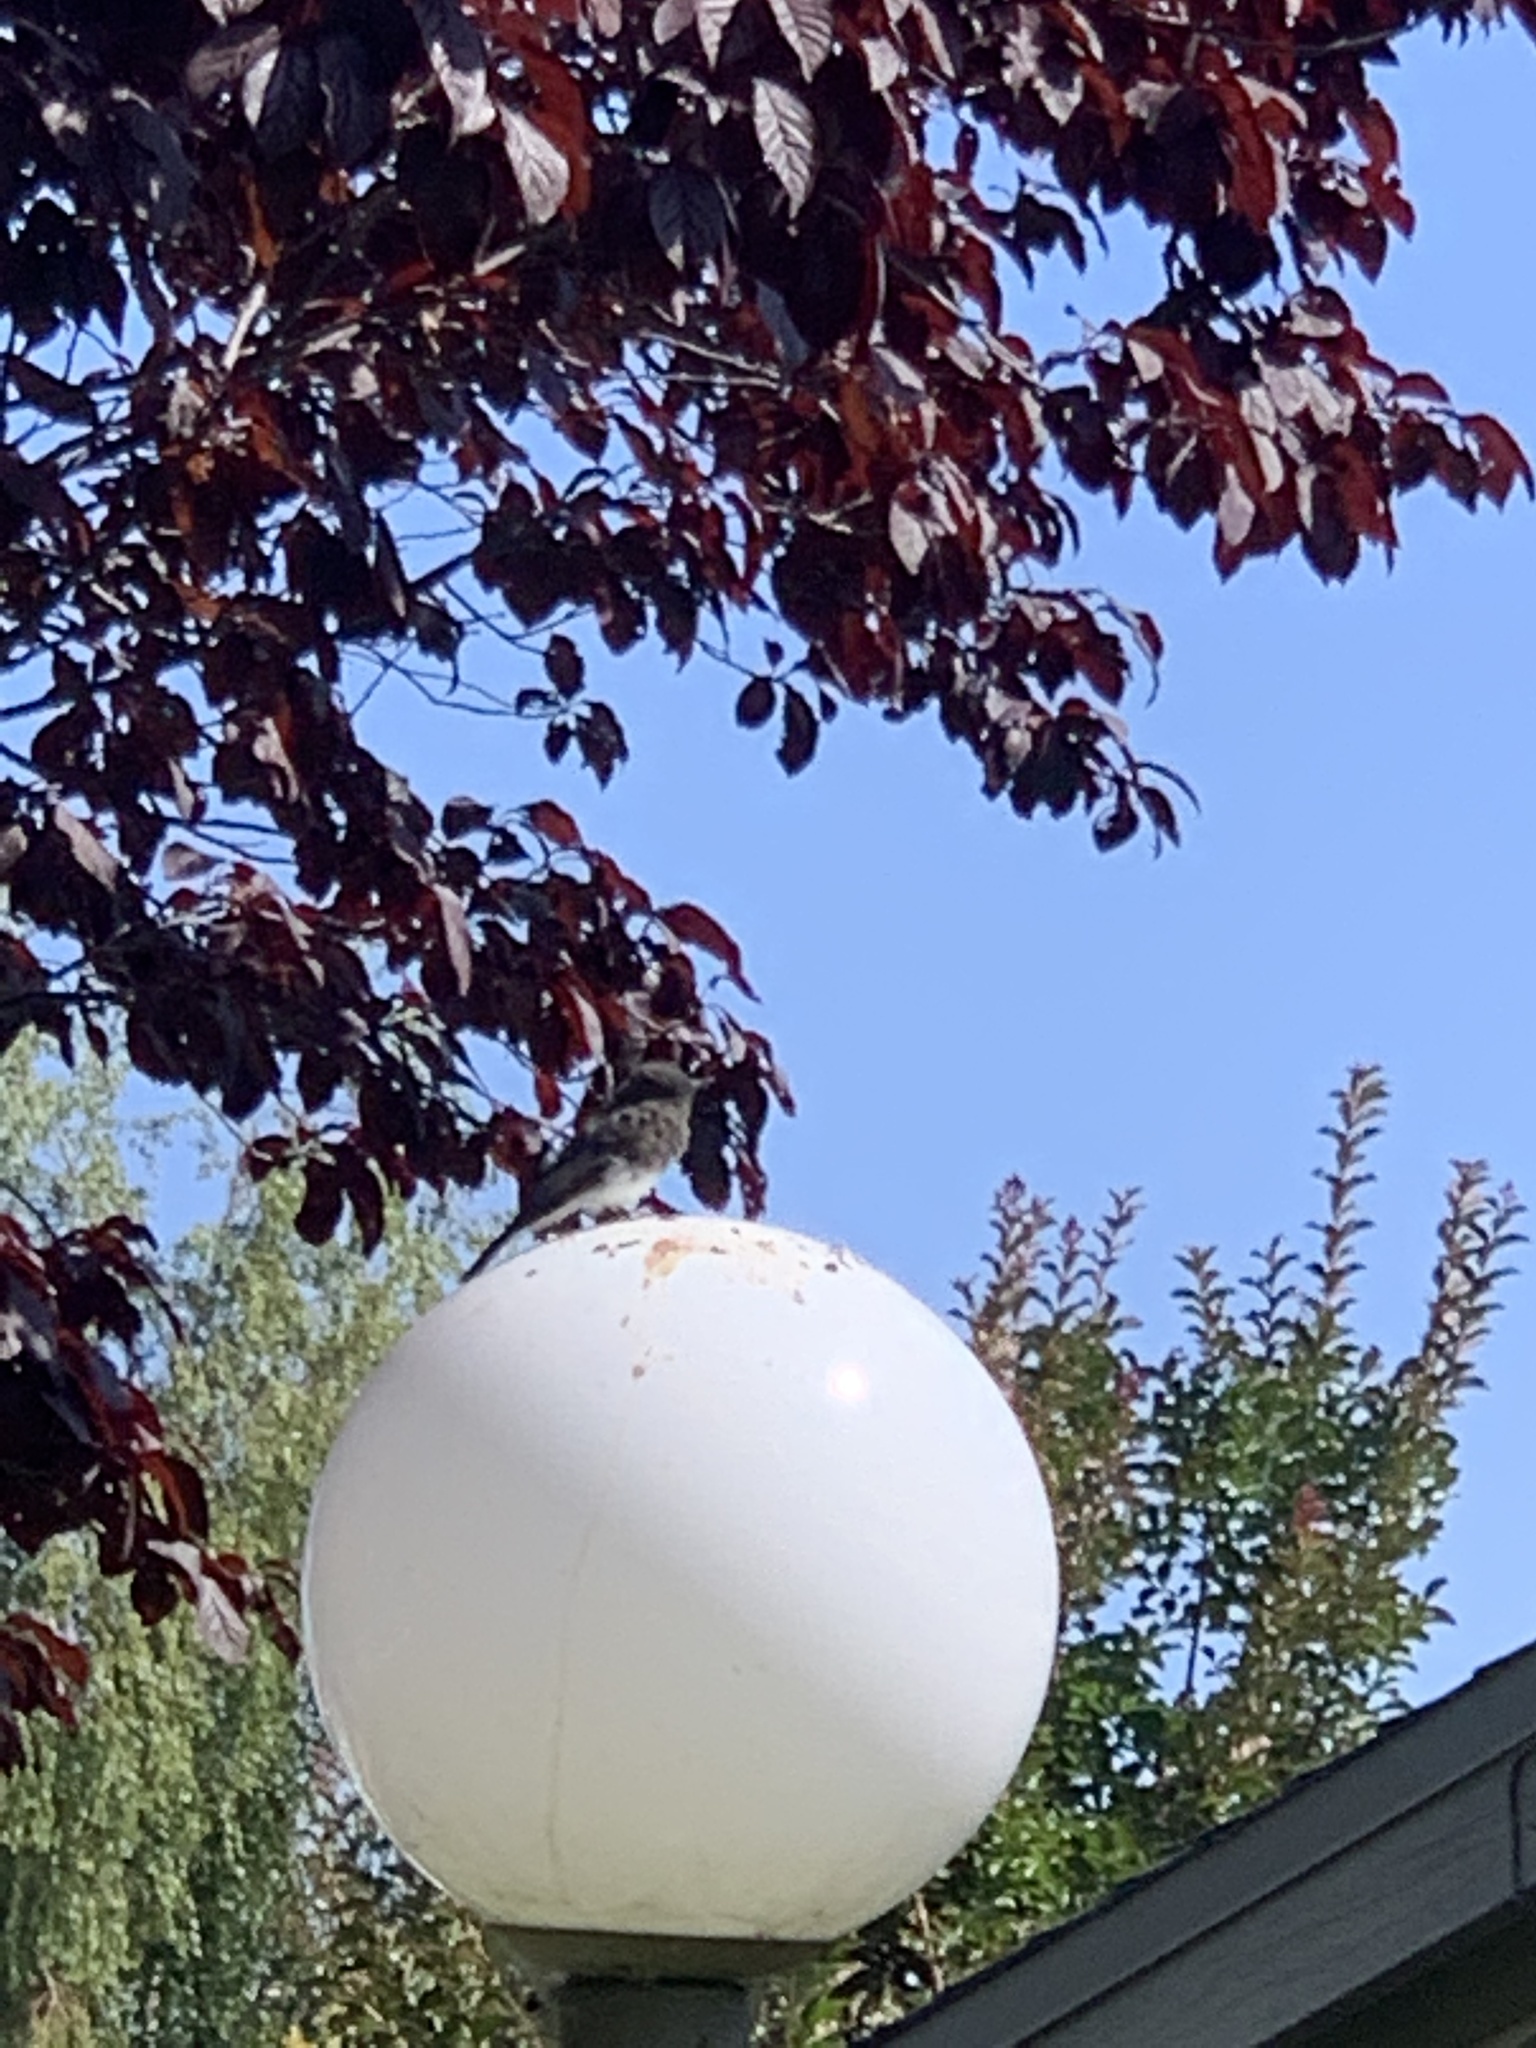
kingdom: Animalia
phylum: Chordata
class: Aves
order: Passeriformes
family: Tyrannidae
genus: Sayornis
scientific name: Sayornis nigricans
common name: Black phoebe
